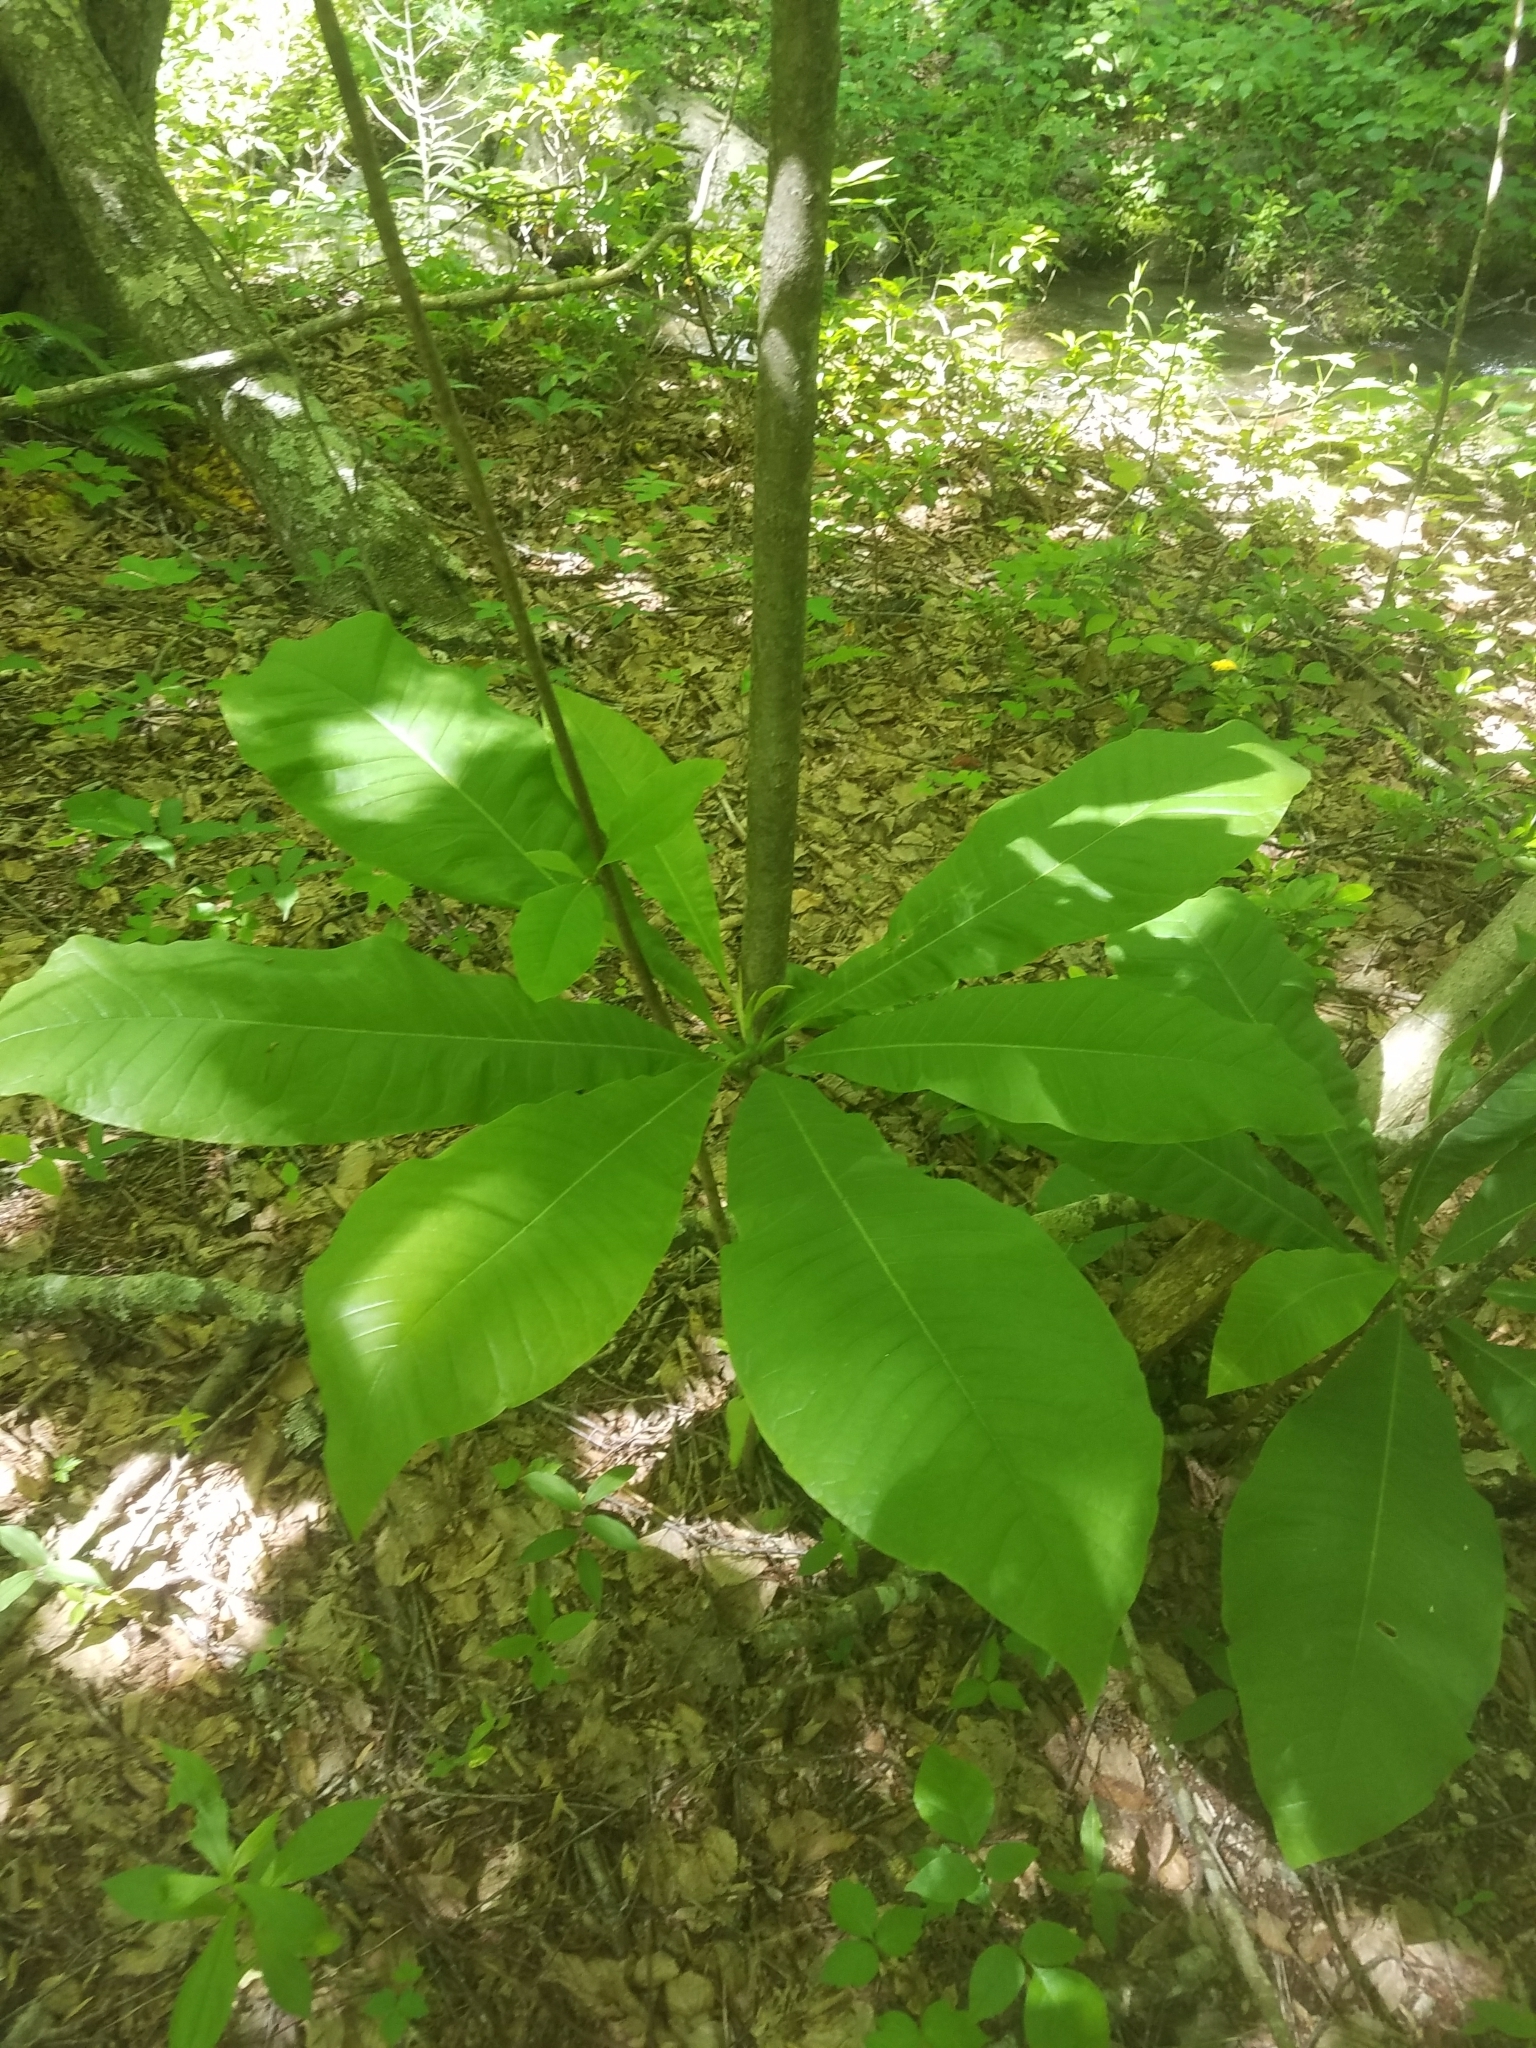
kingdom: Plantae
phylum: Tracheophyta
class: Magnoliopsida
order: Magnoliales
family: Magnoliaceae
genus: Magnolia
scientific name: Magnolia tripetala
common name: Umbrella magnolia
